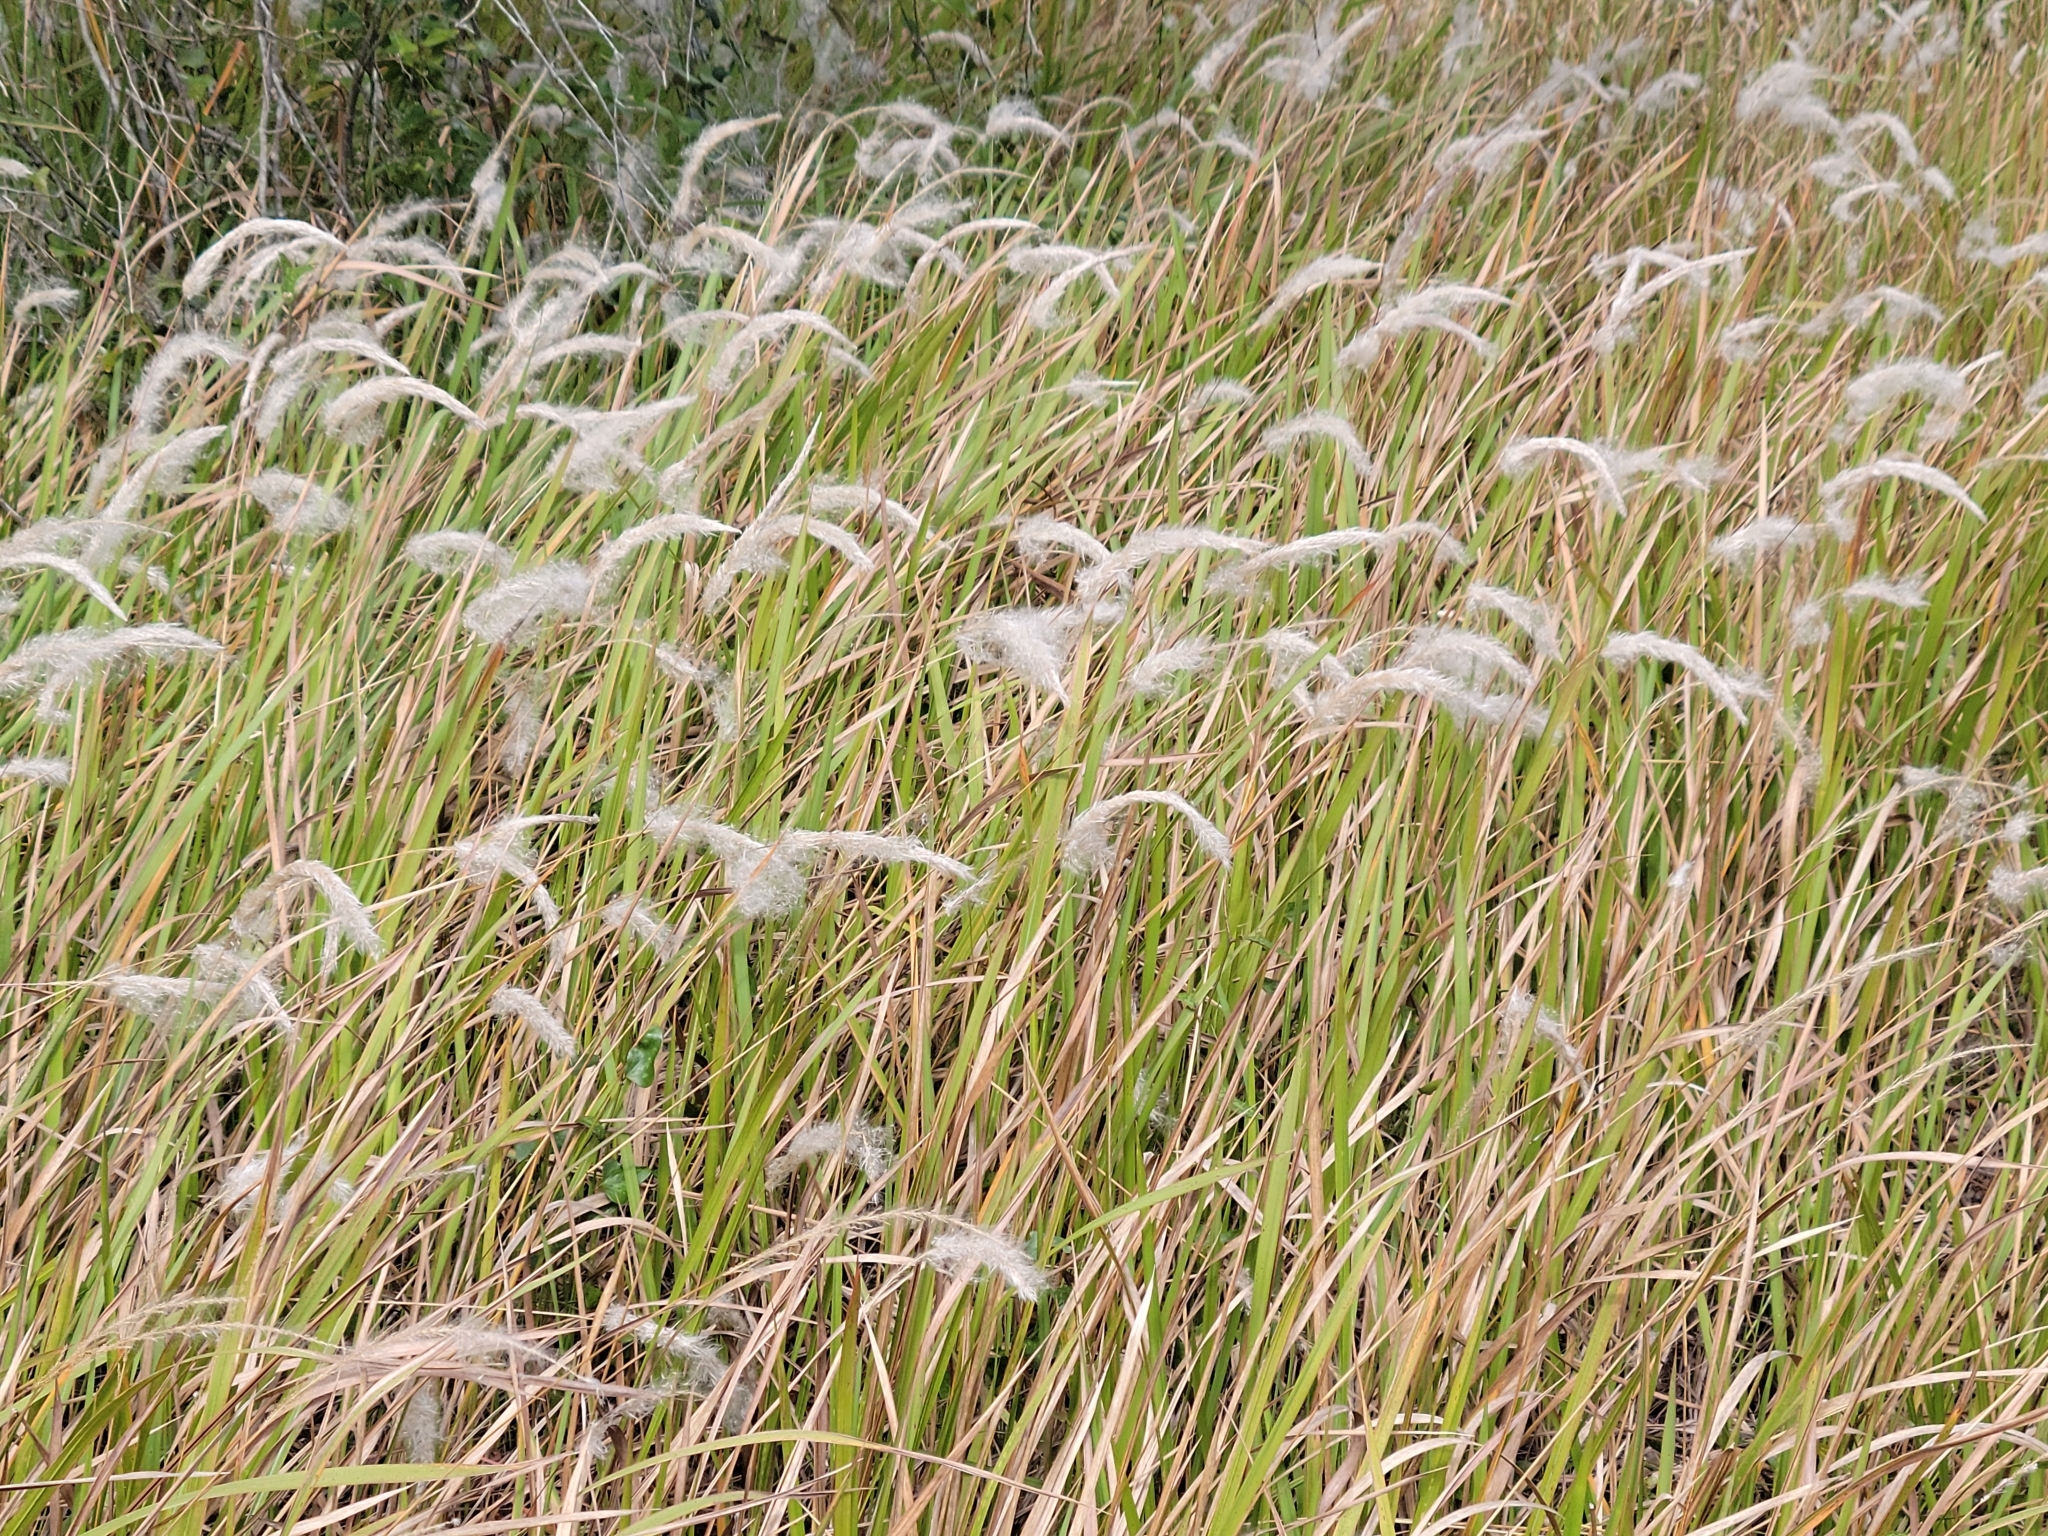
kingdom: Plantae
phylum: Tracheophyta
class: Liliopsida
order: Poales
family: Poaceae
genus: Imperata
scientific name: Imperata cylindrica
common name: Cogongrass
